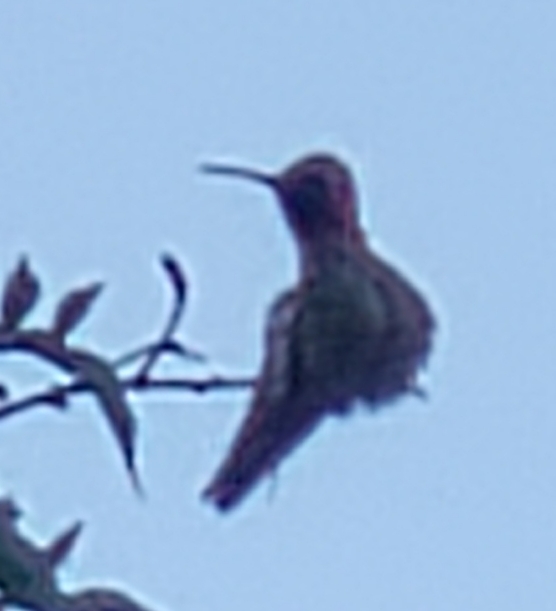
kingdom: Animalia
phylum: Chordata
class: Aves
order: Apodiformes
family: Trochilidae
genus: Calypte
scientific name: Calypte anna
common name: Anna's hummingbird
